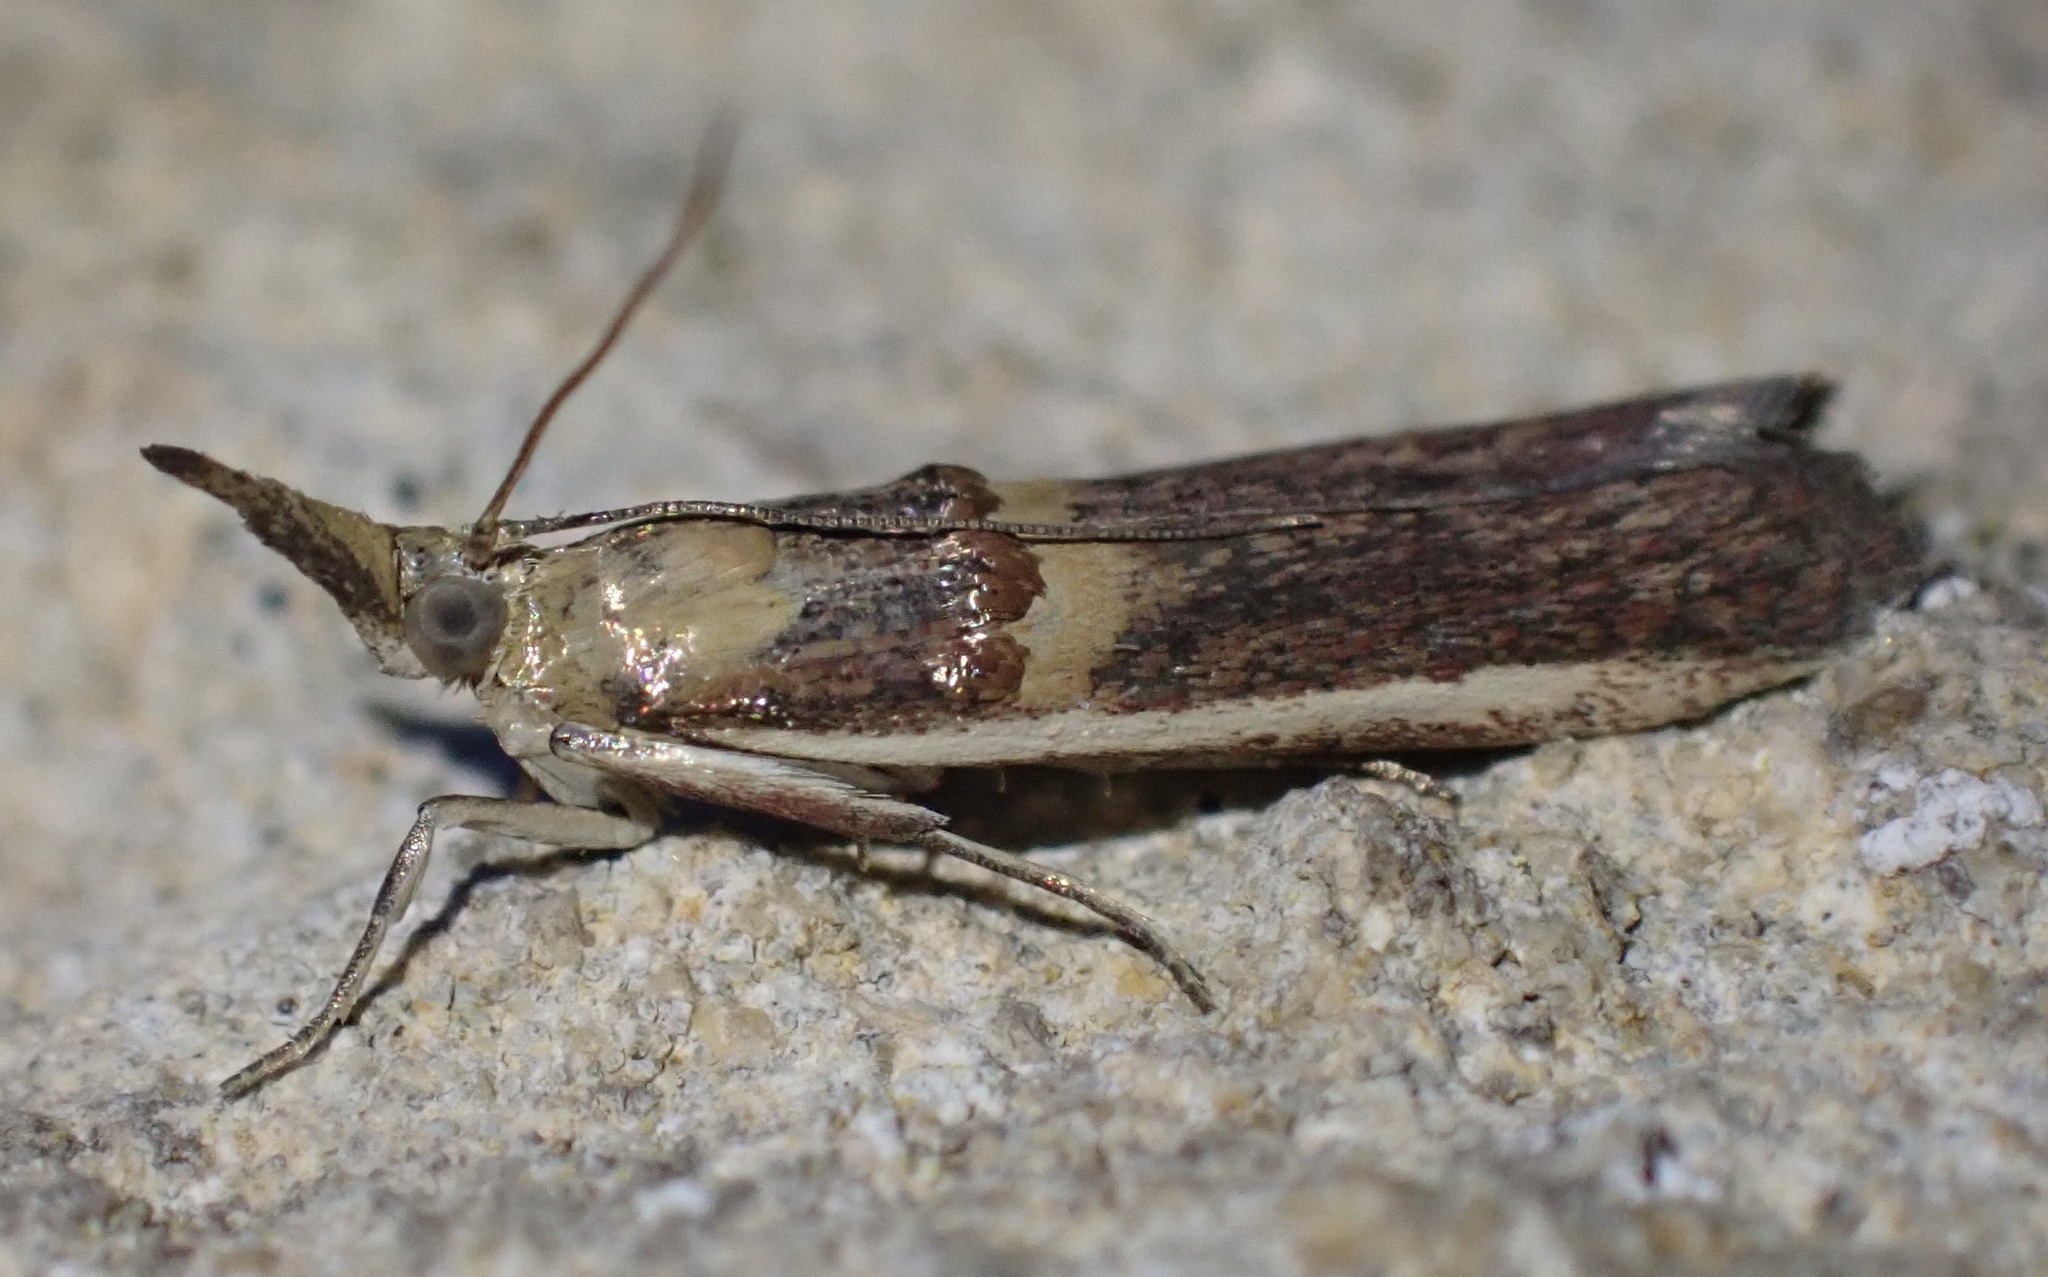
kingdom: Animalia
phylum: Arthropoda
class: Insecta
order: Lepidoptera
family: Pyralidae
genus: Etiella
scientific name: Etiella zinckenella
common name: Gold-banded etiella moth
